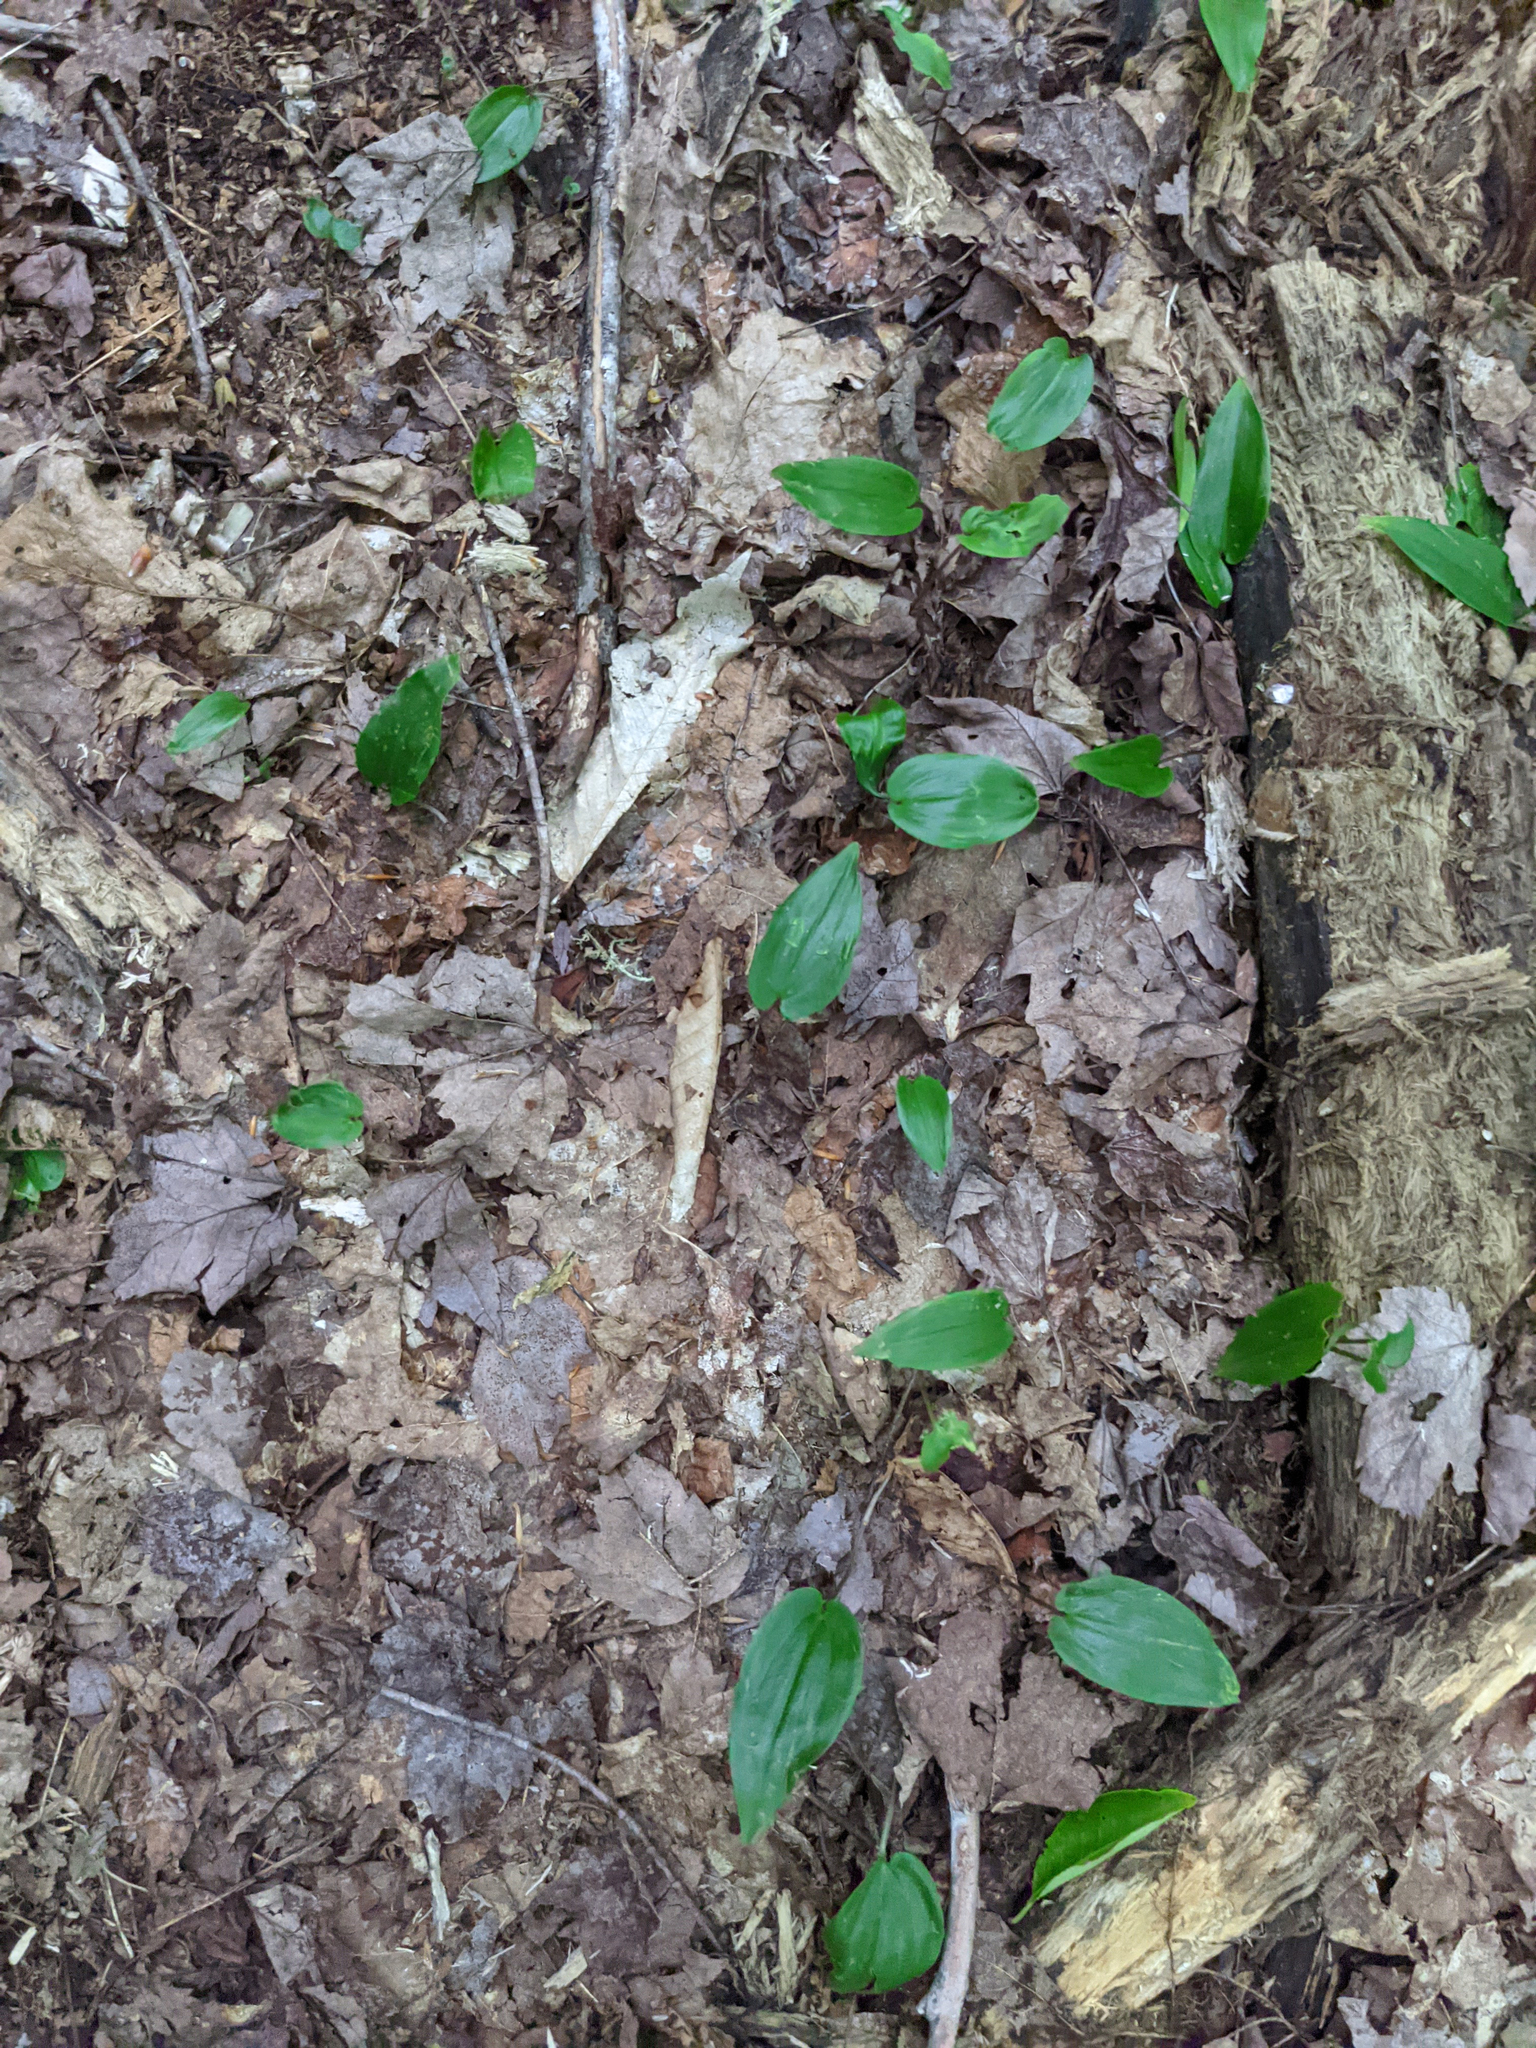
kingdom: Plantae
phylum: Tracheophyta
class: Liliopsida
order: Asparagales
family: Asparagaceae
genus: Maianthemum
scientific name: Maianthemum canadense
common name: False lily-of-the-valley
